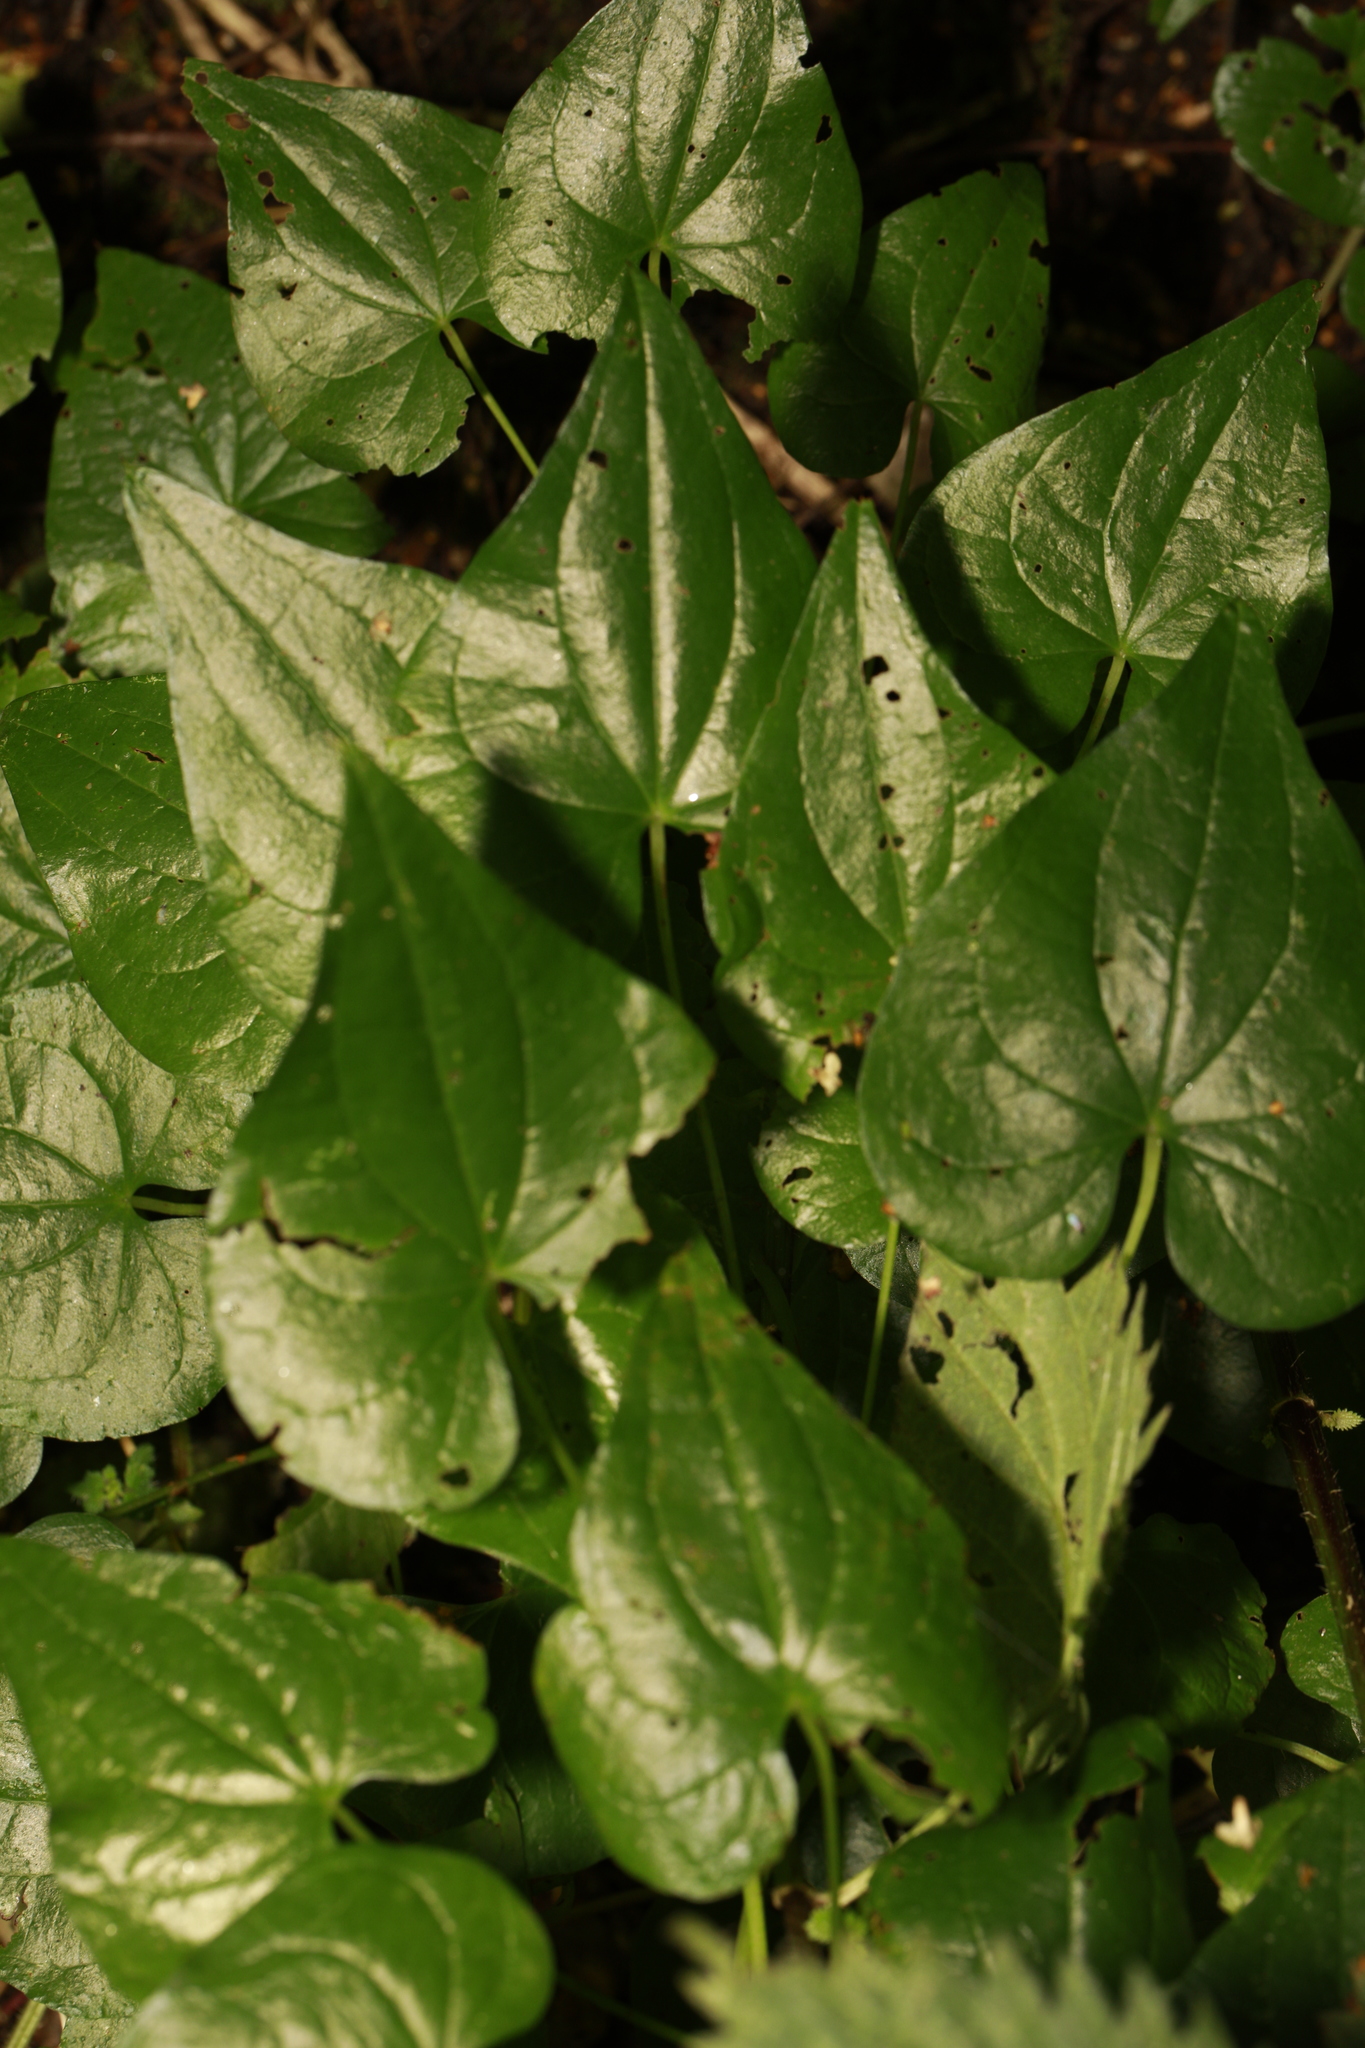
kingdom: Plantae
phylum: Tracheophyta
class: Liliopsida
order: Dioscoreales
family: Dioscoreaceae
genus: Dioscorea
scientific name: Dioscorea communis
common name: Black-bindweed
